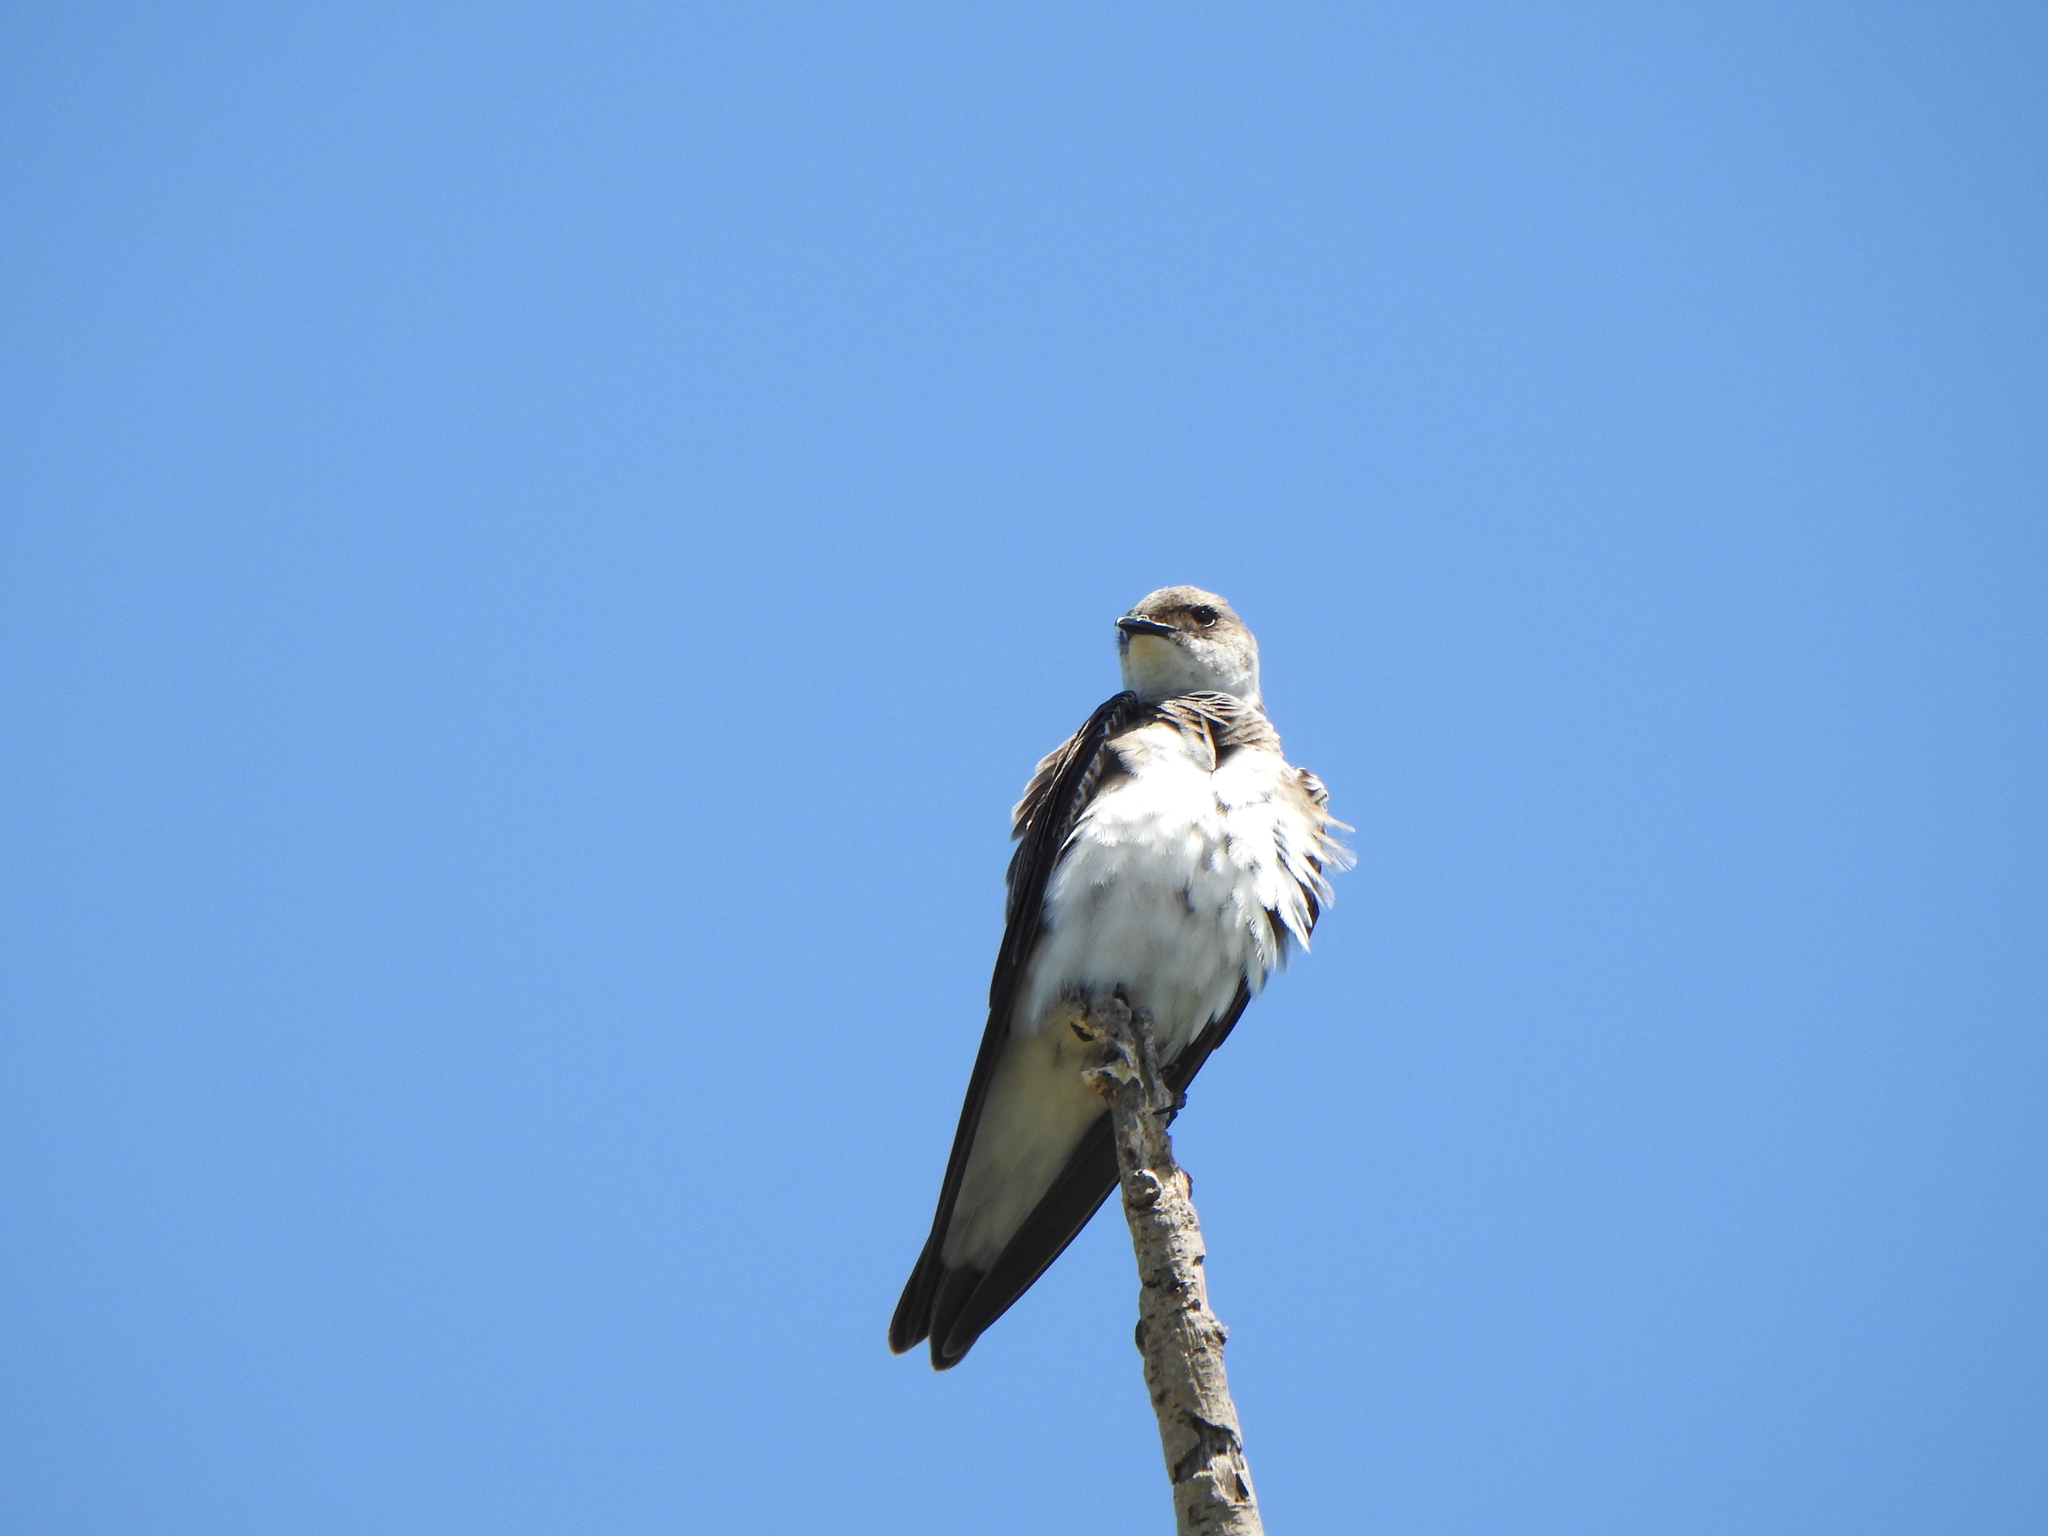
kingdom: Animalia
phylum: Chordata
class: Aves
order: Passeriformes
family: Hirundinidae
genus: Progne
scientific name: Progne tapera
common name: Brown-chested martin
